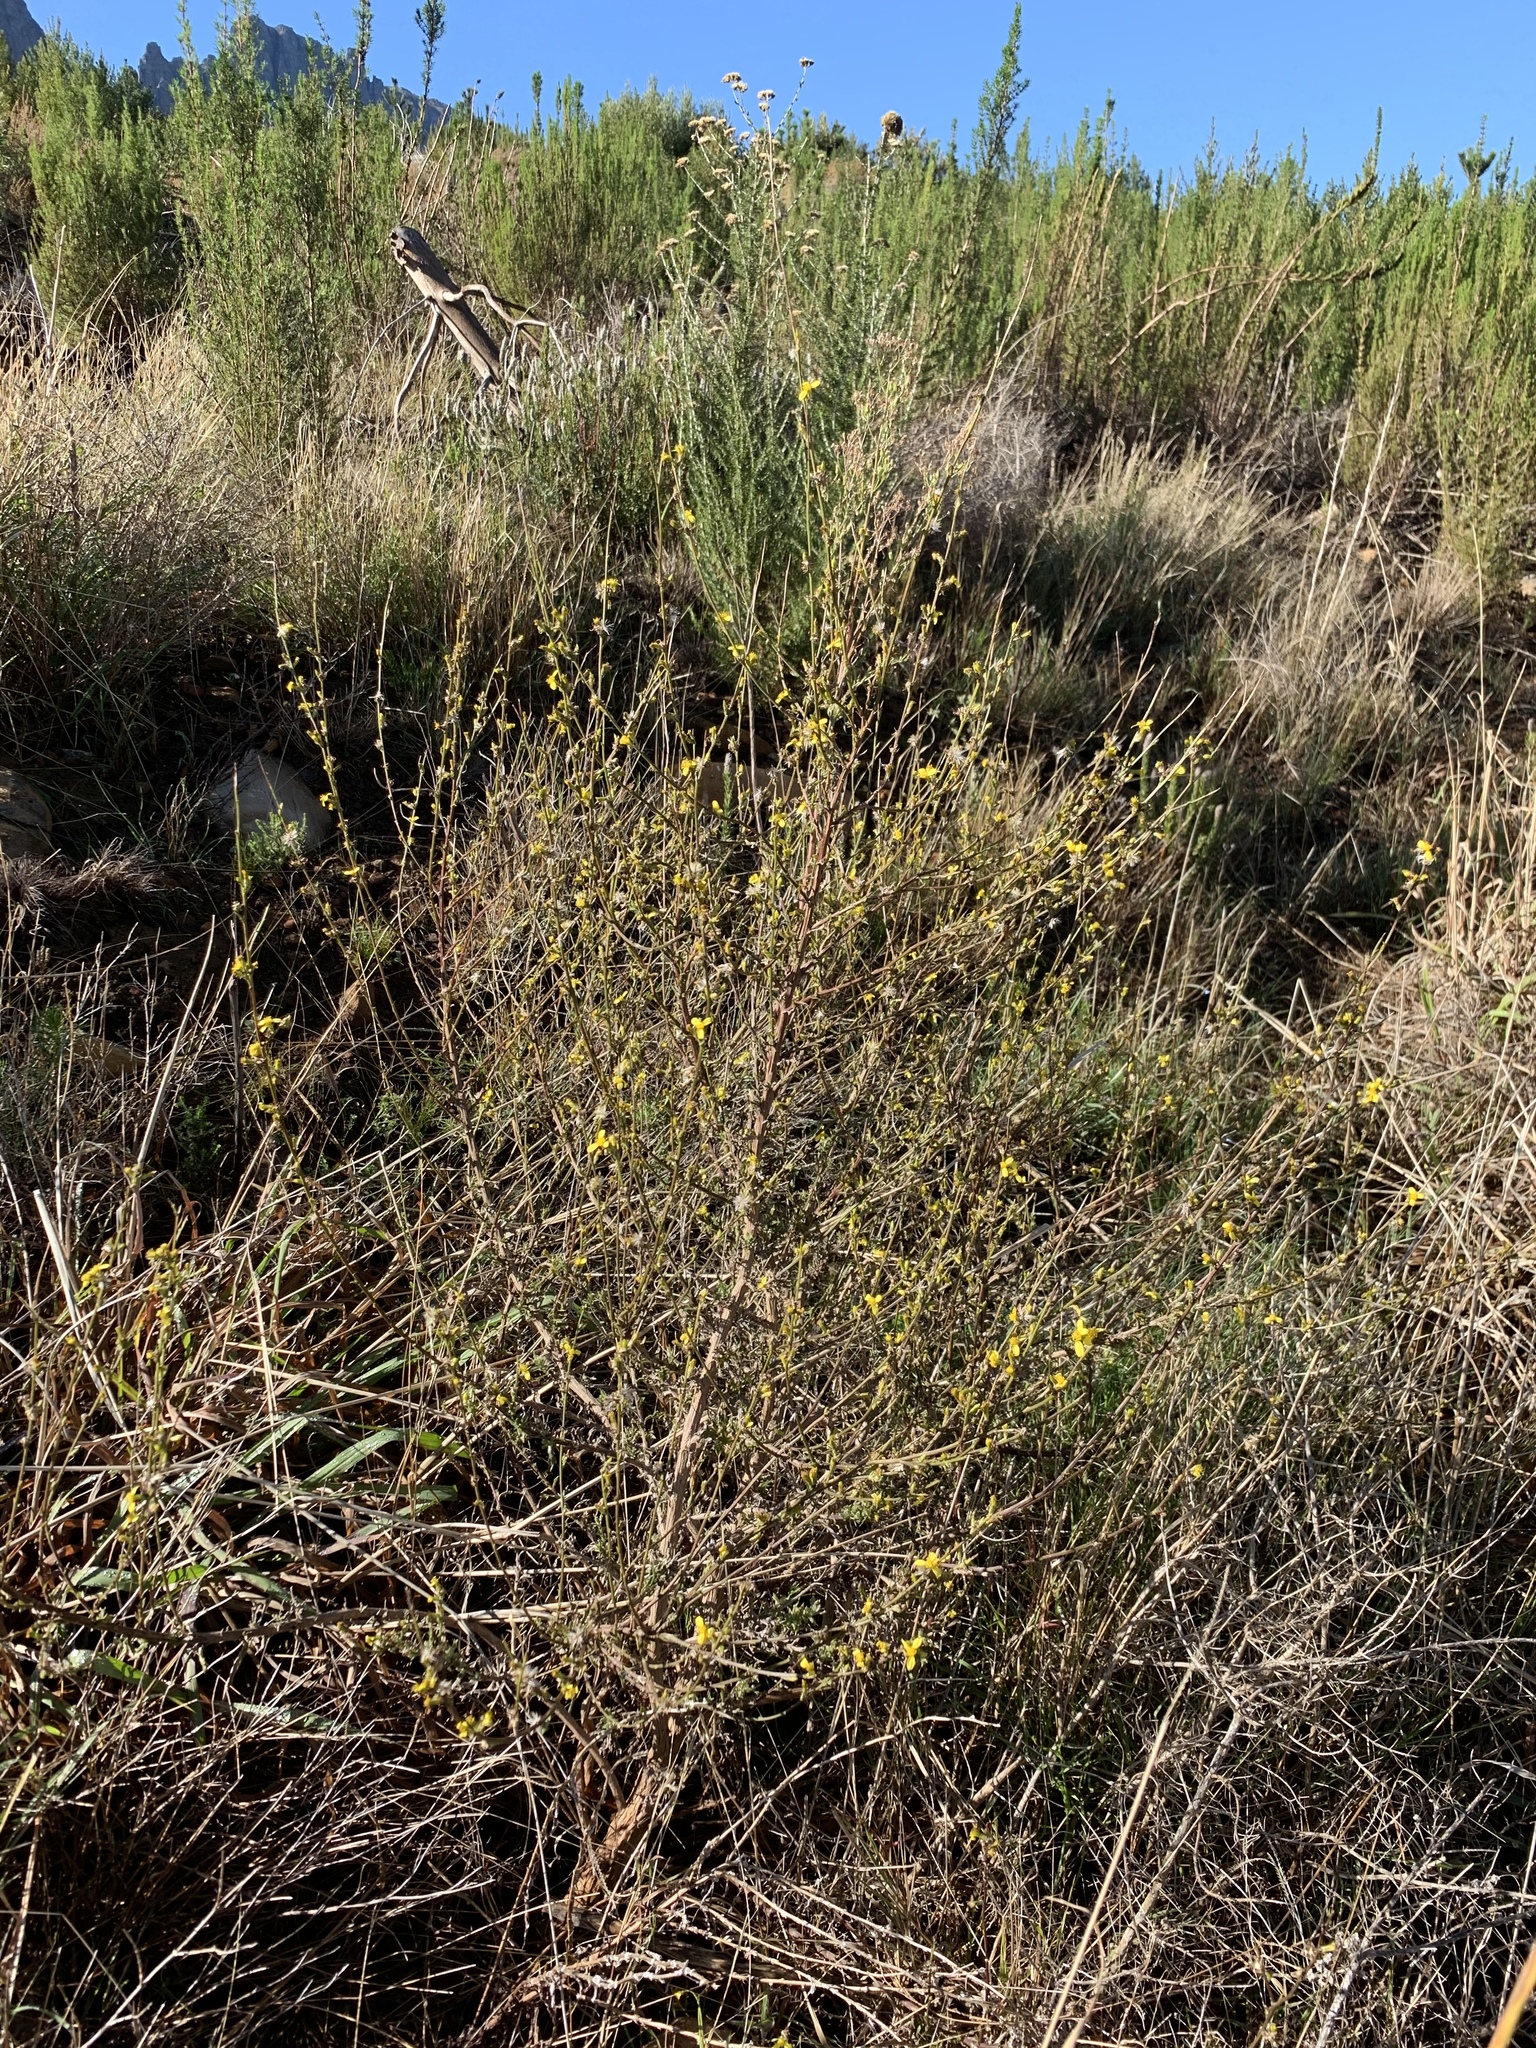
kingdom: Plantae
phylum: Tracheophyta
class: Magnoliopsida
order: Asterales
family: Asteraceae
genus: Senecio
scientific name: Senecio pubigerus
